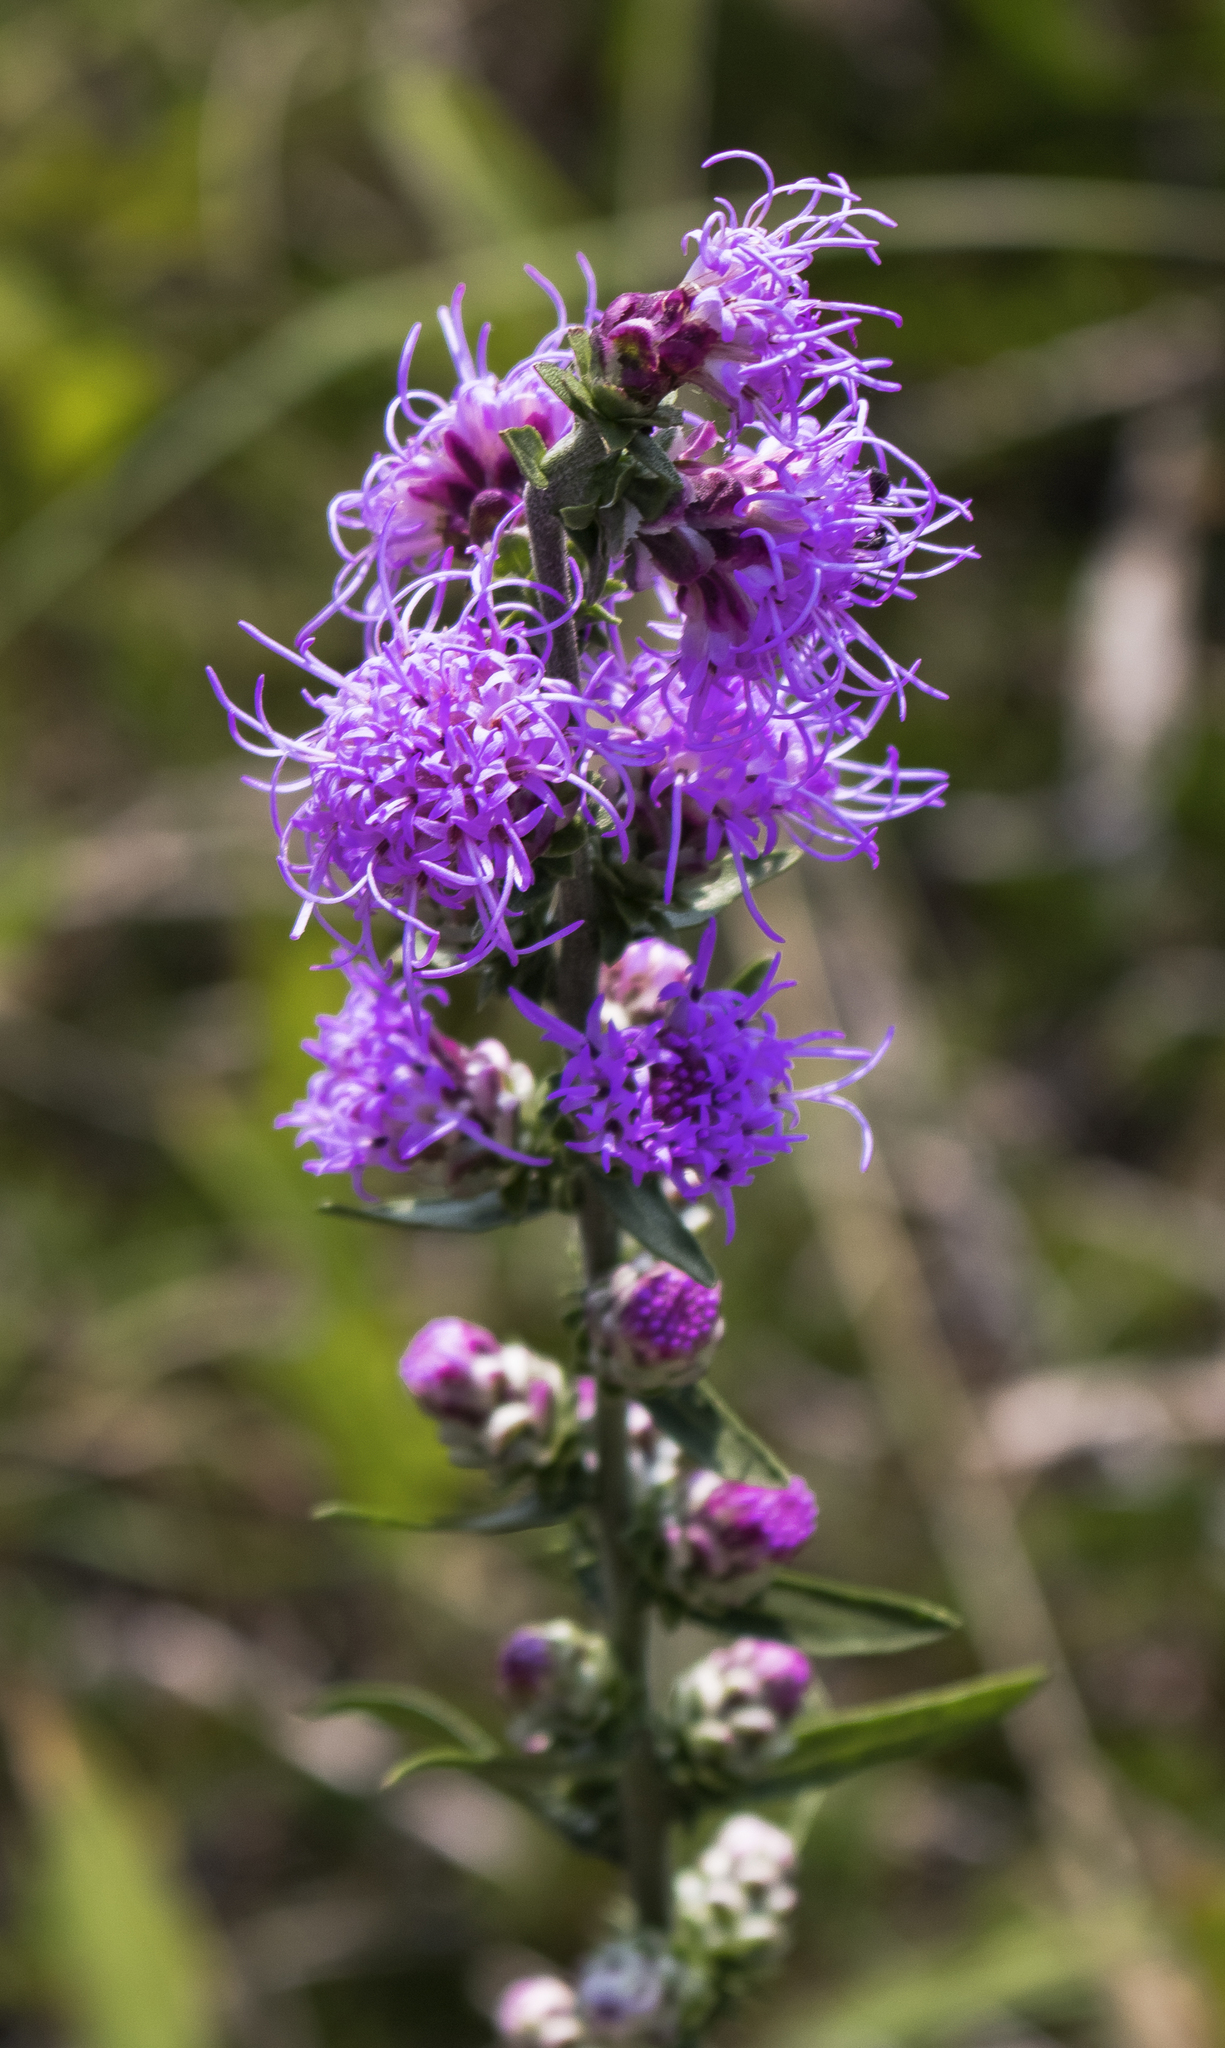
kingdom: Plantae
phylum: Tracheophyta
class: Magnoliopsida
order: Asterales
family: Asteraceae
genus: Liatris
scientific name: Liatris aspera
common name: Lacerate blazing-star
